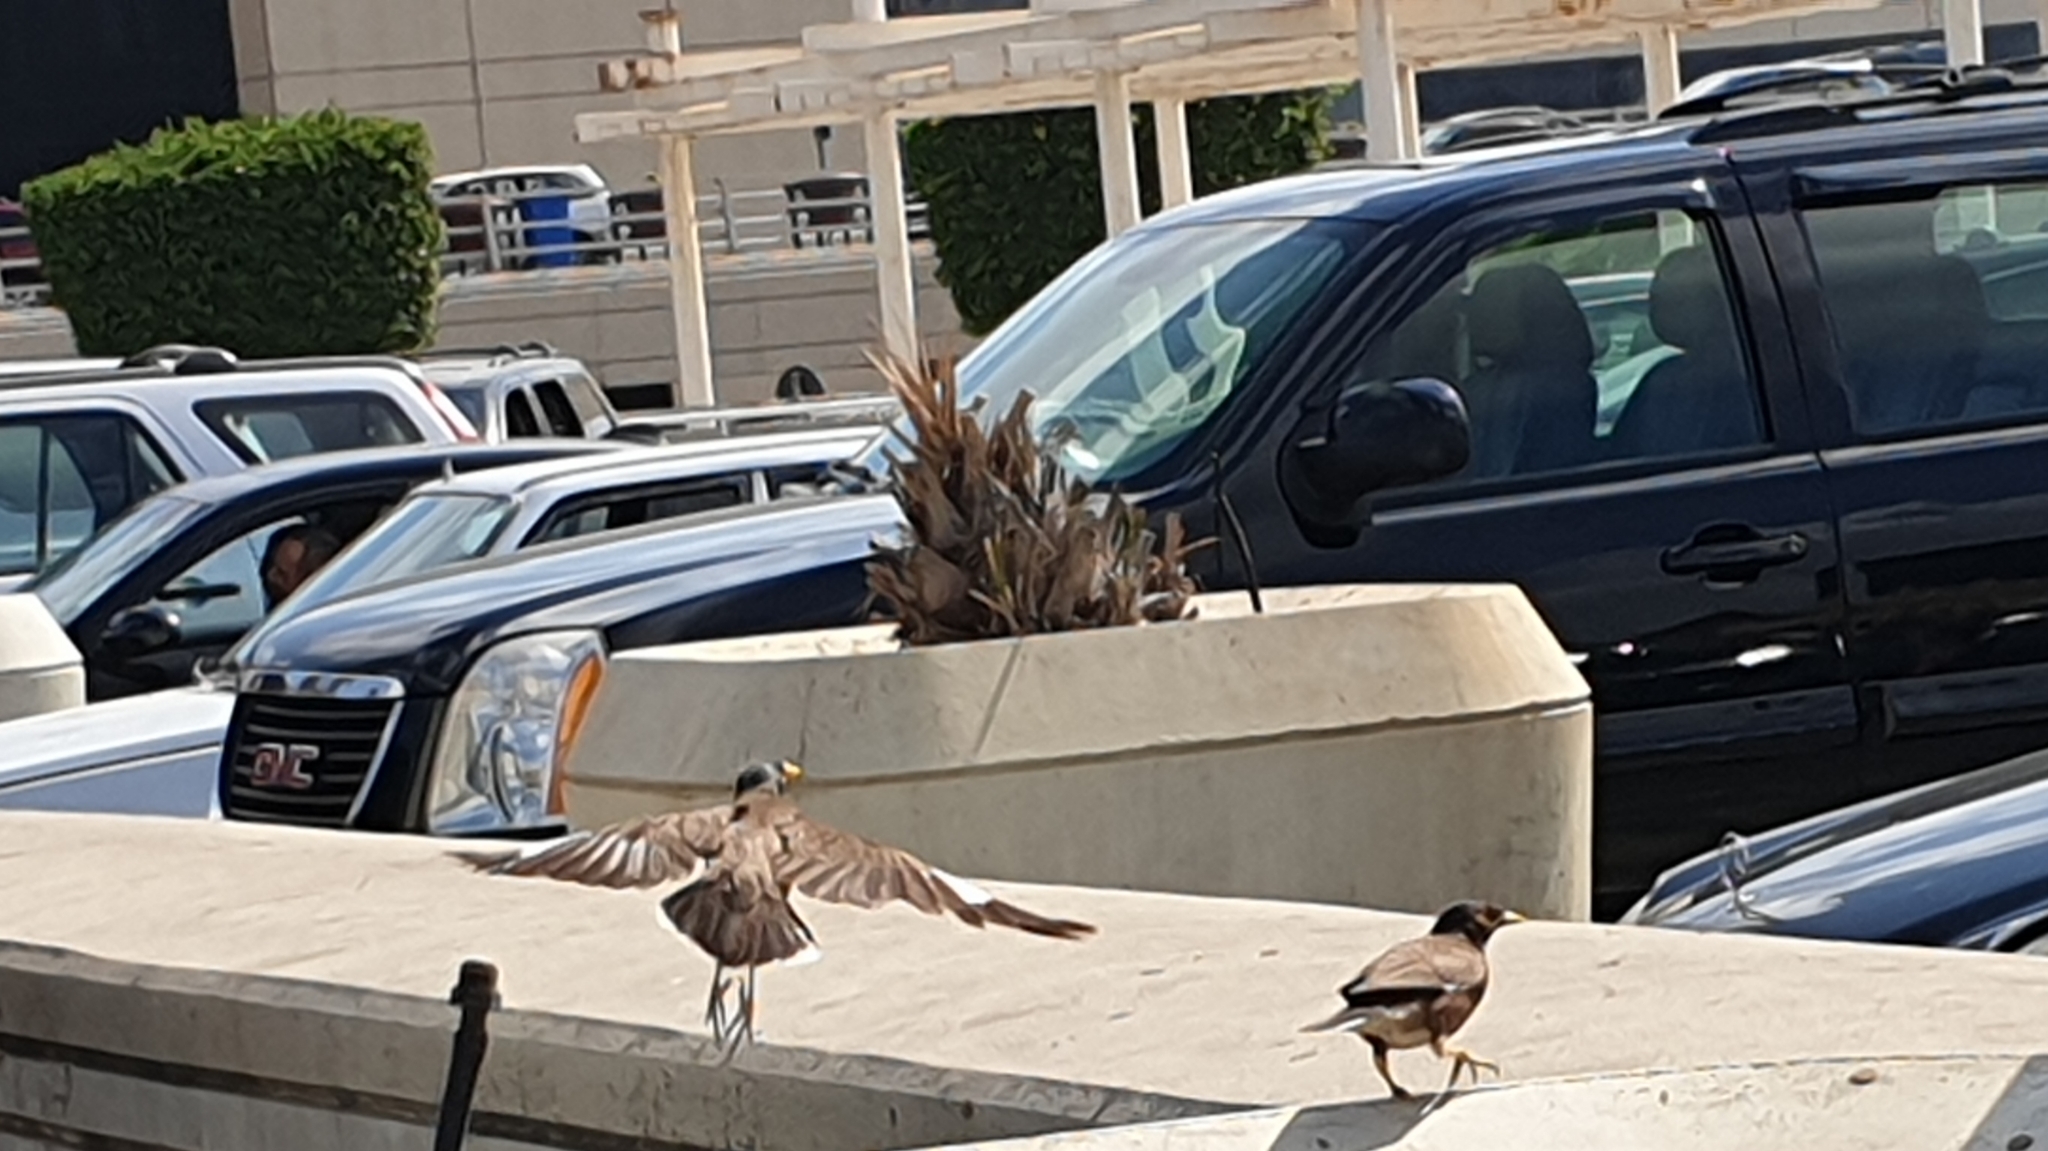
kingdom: Animalia
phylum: Chordata
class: Aves
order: Passeriformes
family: Sturnidae
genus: Acridotheres
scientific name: Acridotheres tristis
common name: Common myna
